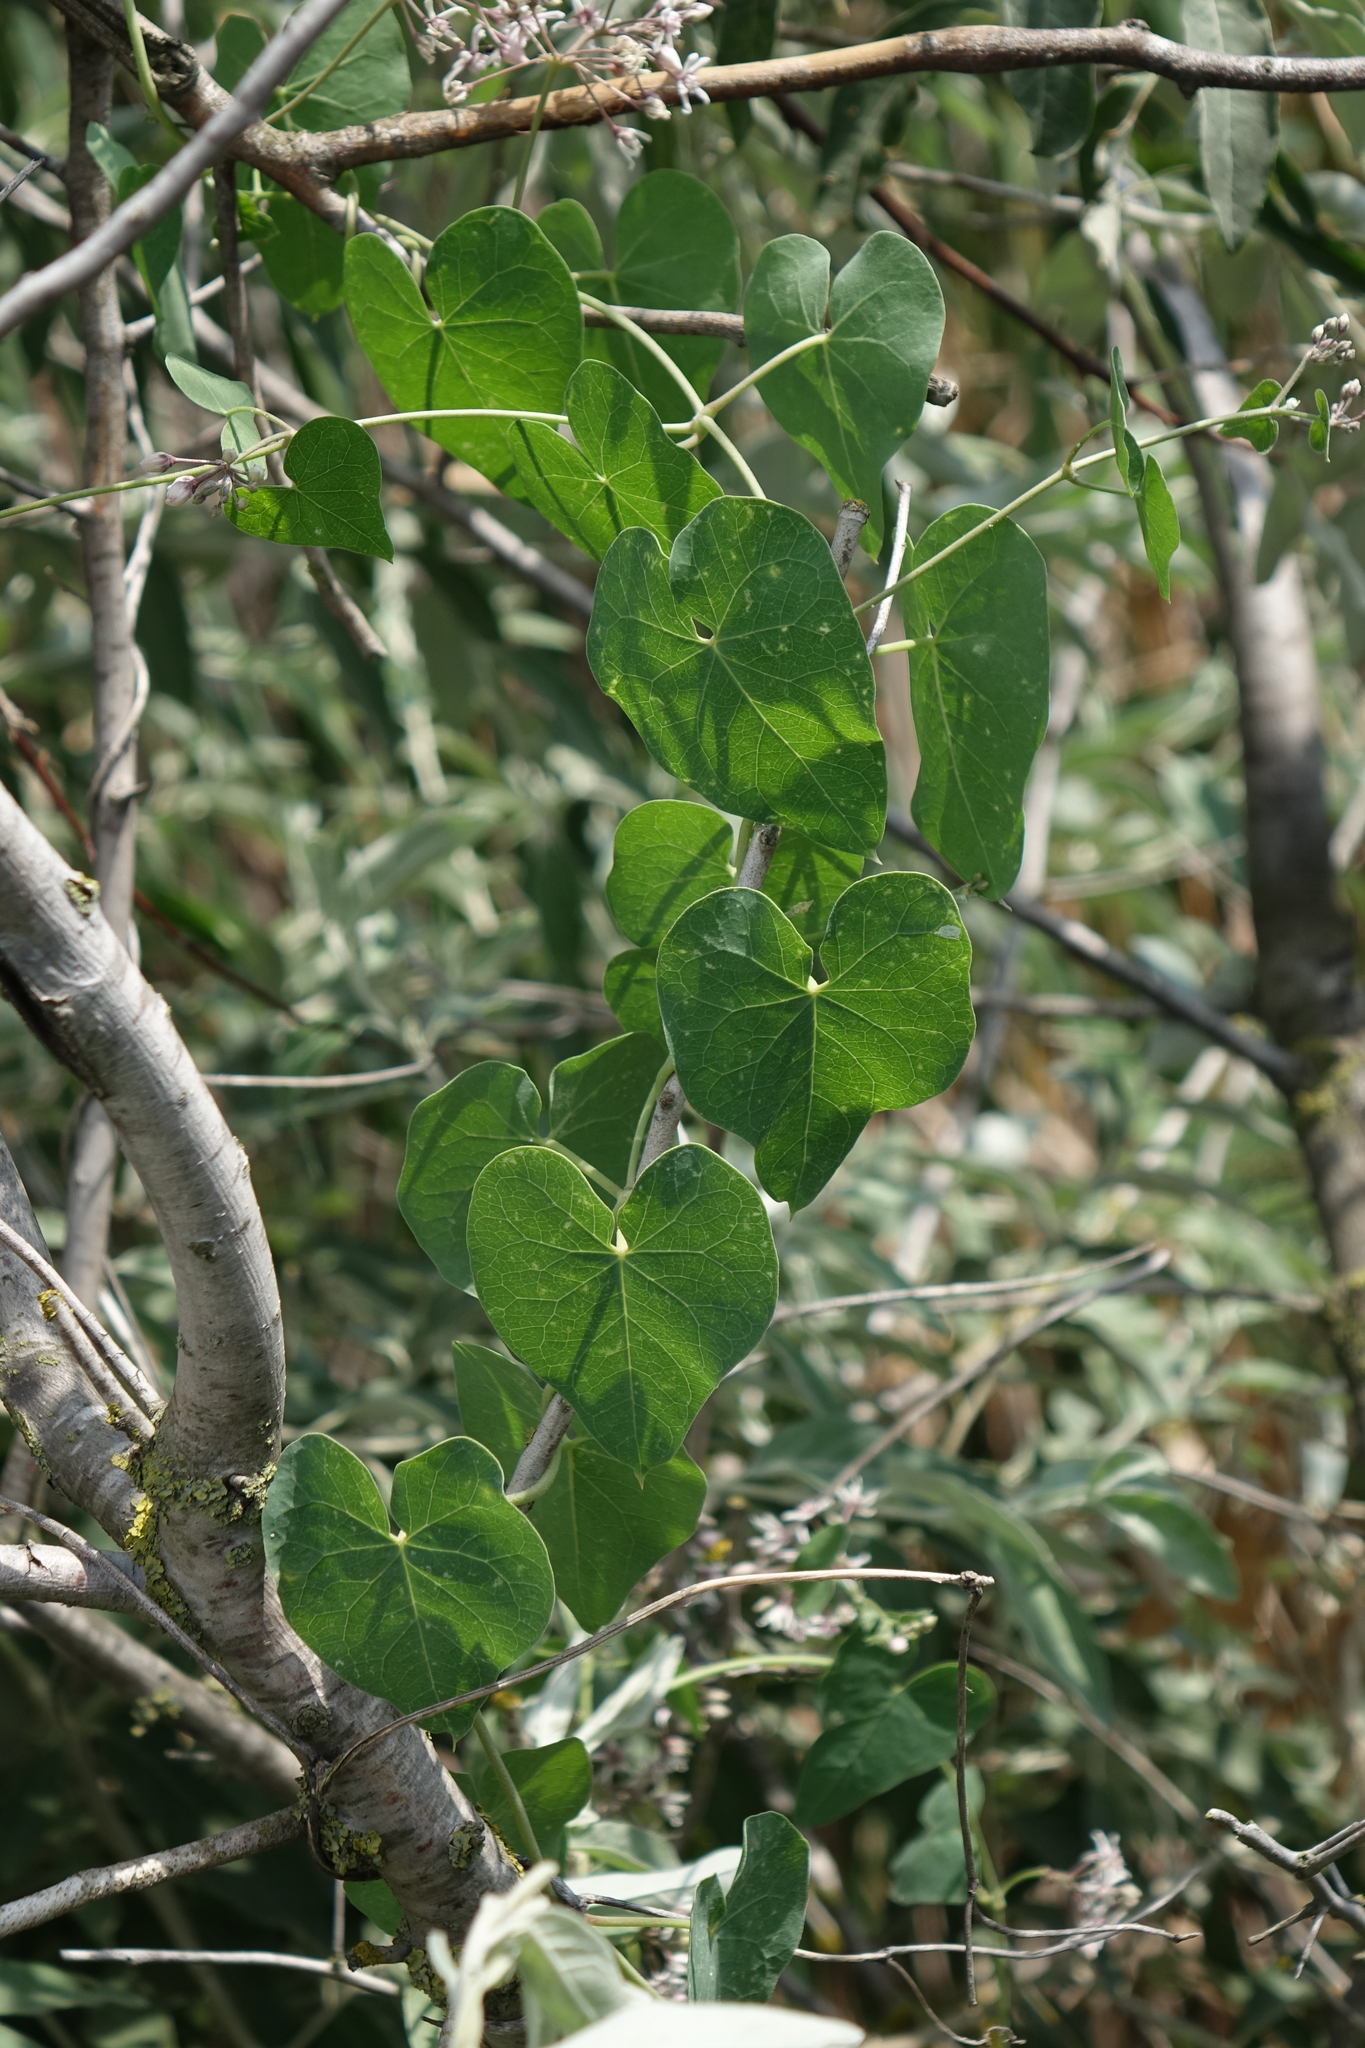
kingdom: Plantae
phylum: Tracheophyta
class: Liliopsida
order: Dioscoreales
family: Dioscoreaceae
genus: Dioscorea
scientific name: Dioscorea communis
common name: Black-bindweed
